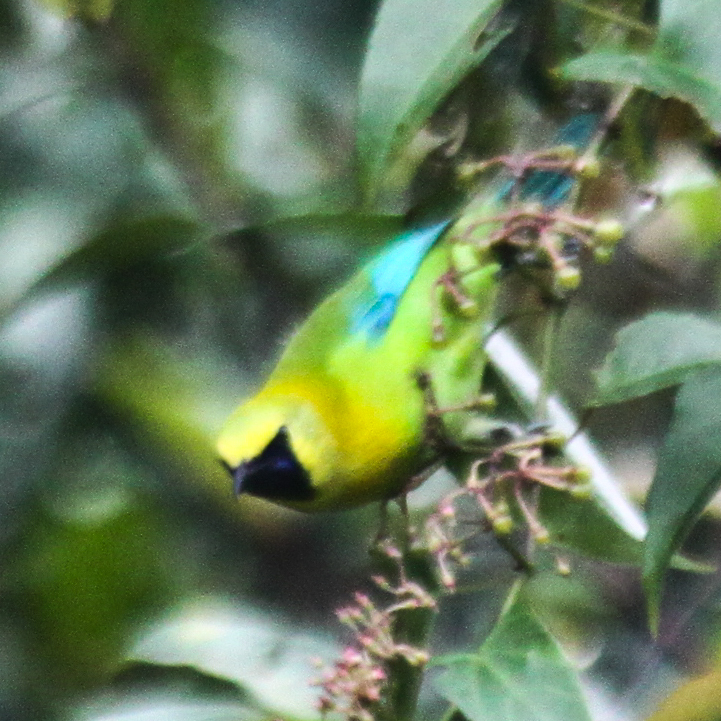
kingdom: Animalia
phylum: Chordata
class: Aves
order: Passeriformes
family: Chloropseidae
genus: Chloropsis
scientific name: Chloropsis moluccensis
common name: Blue-winged leafbird
